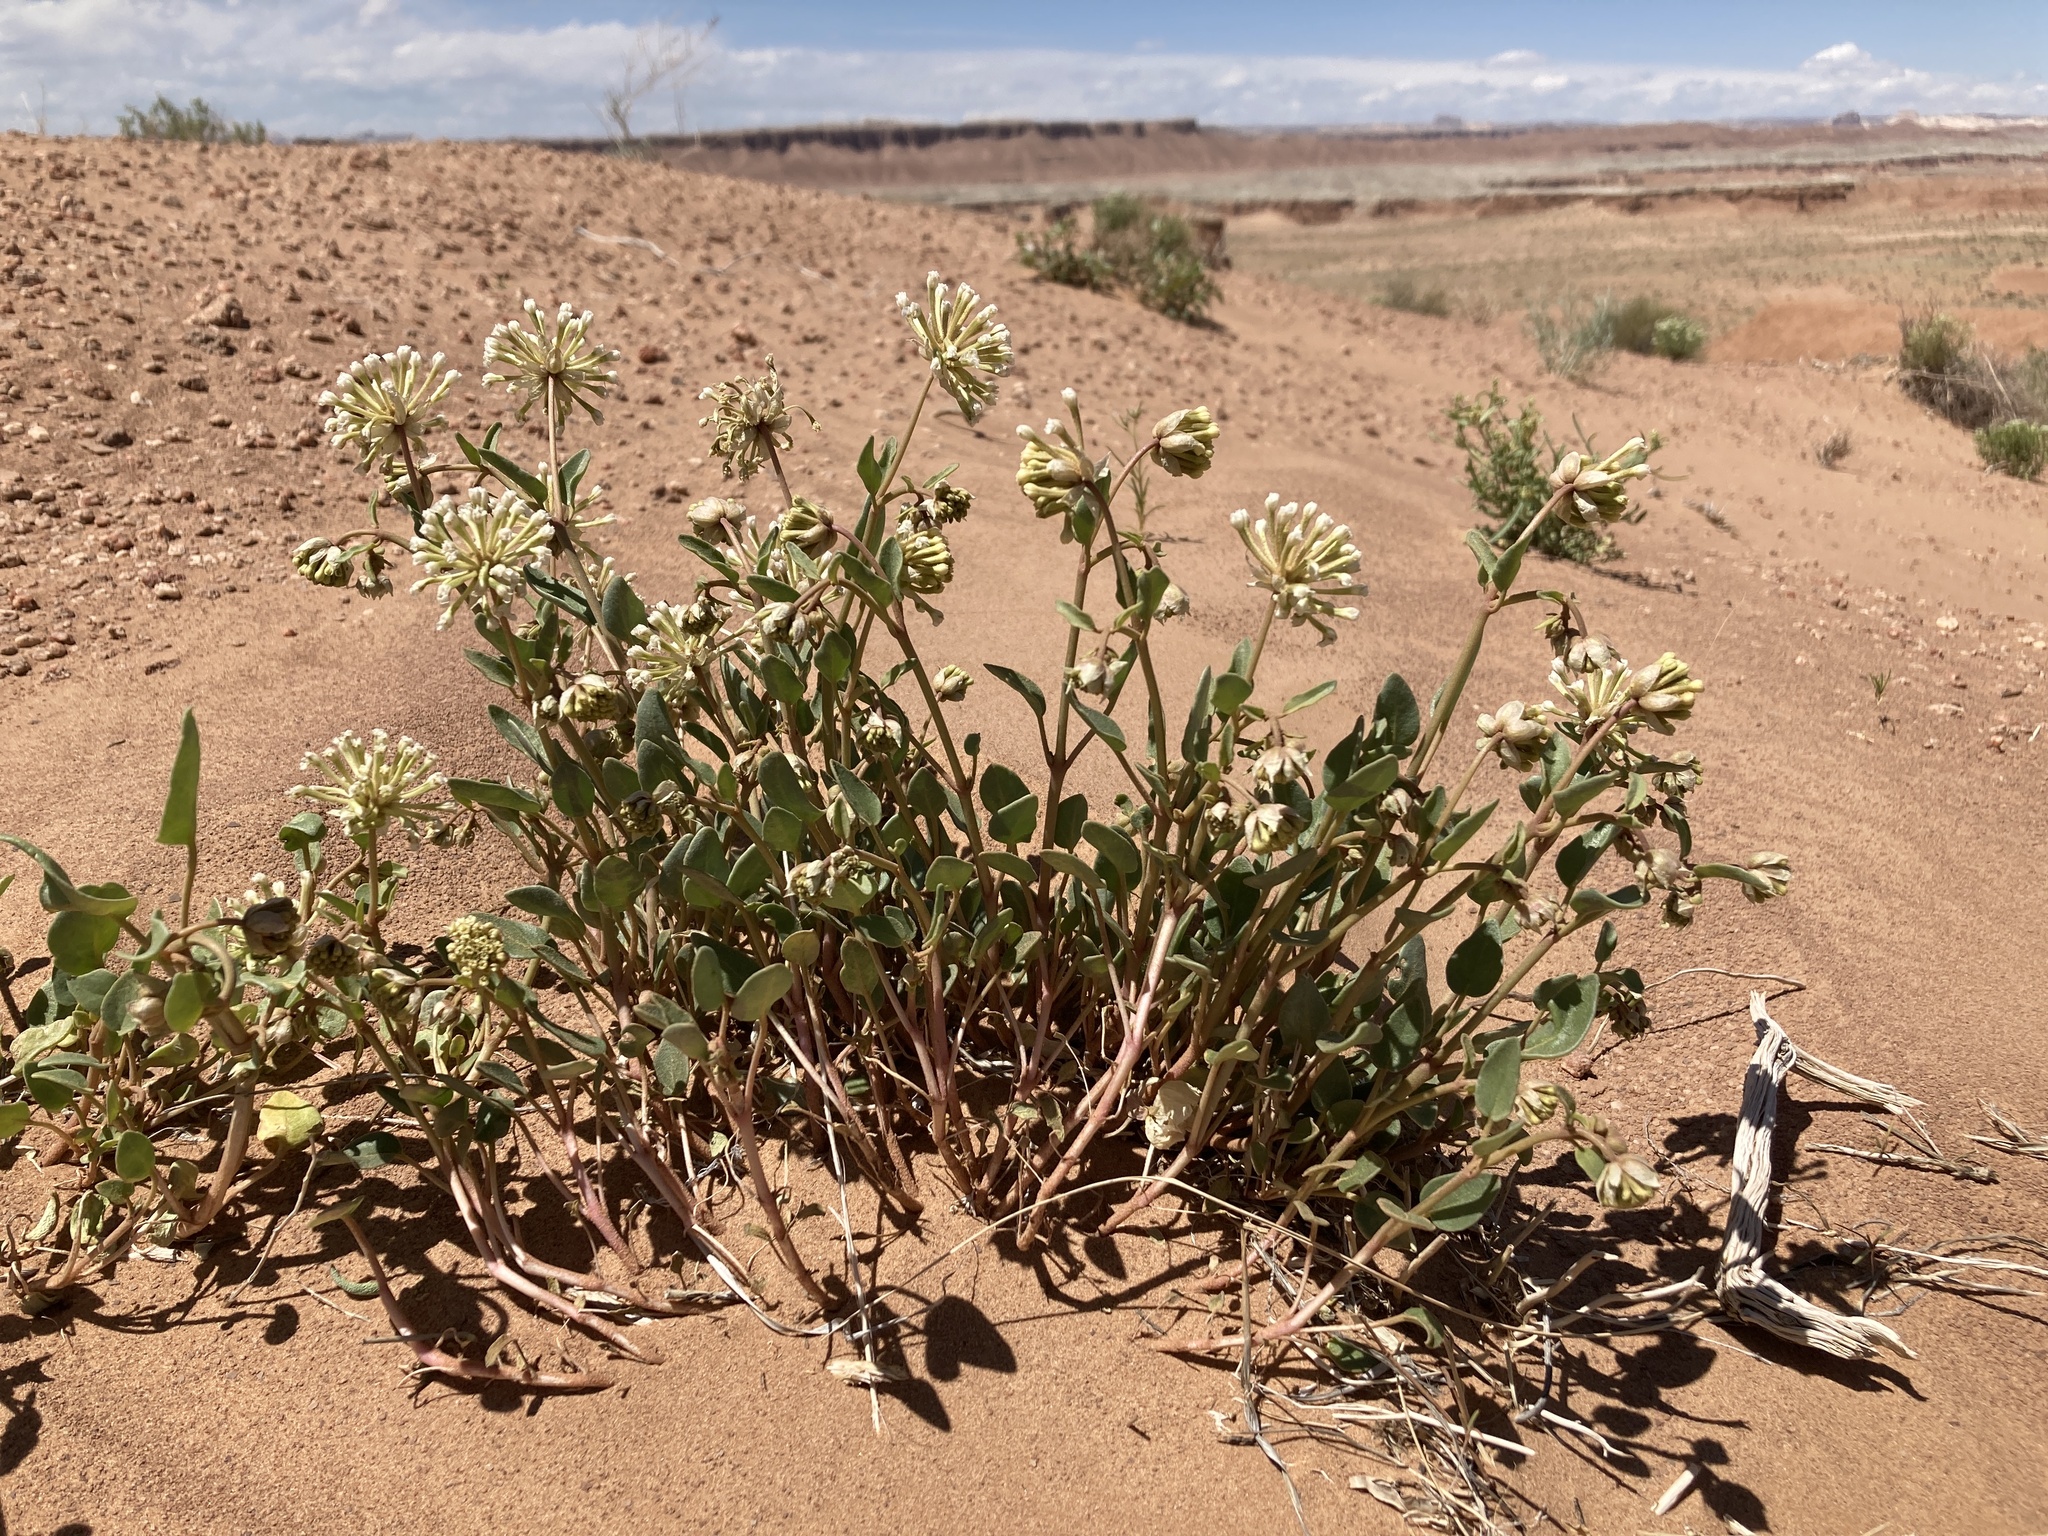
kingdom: Plantae
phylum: Tracheophyta
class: Magnoliopsida
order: Caryophyllales
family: Nyctaginaceae
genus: Abronia
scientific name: Abronia elliptica
